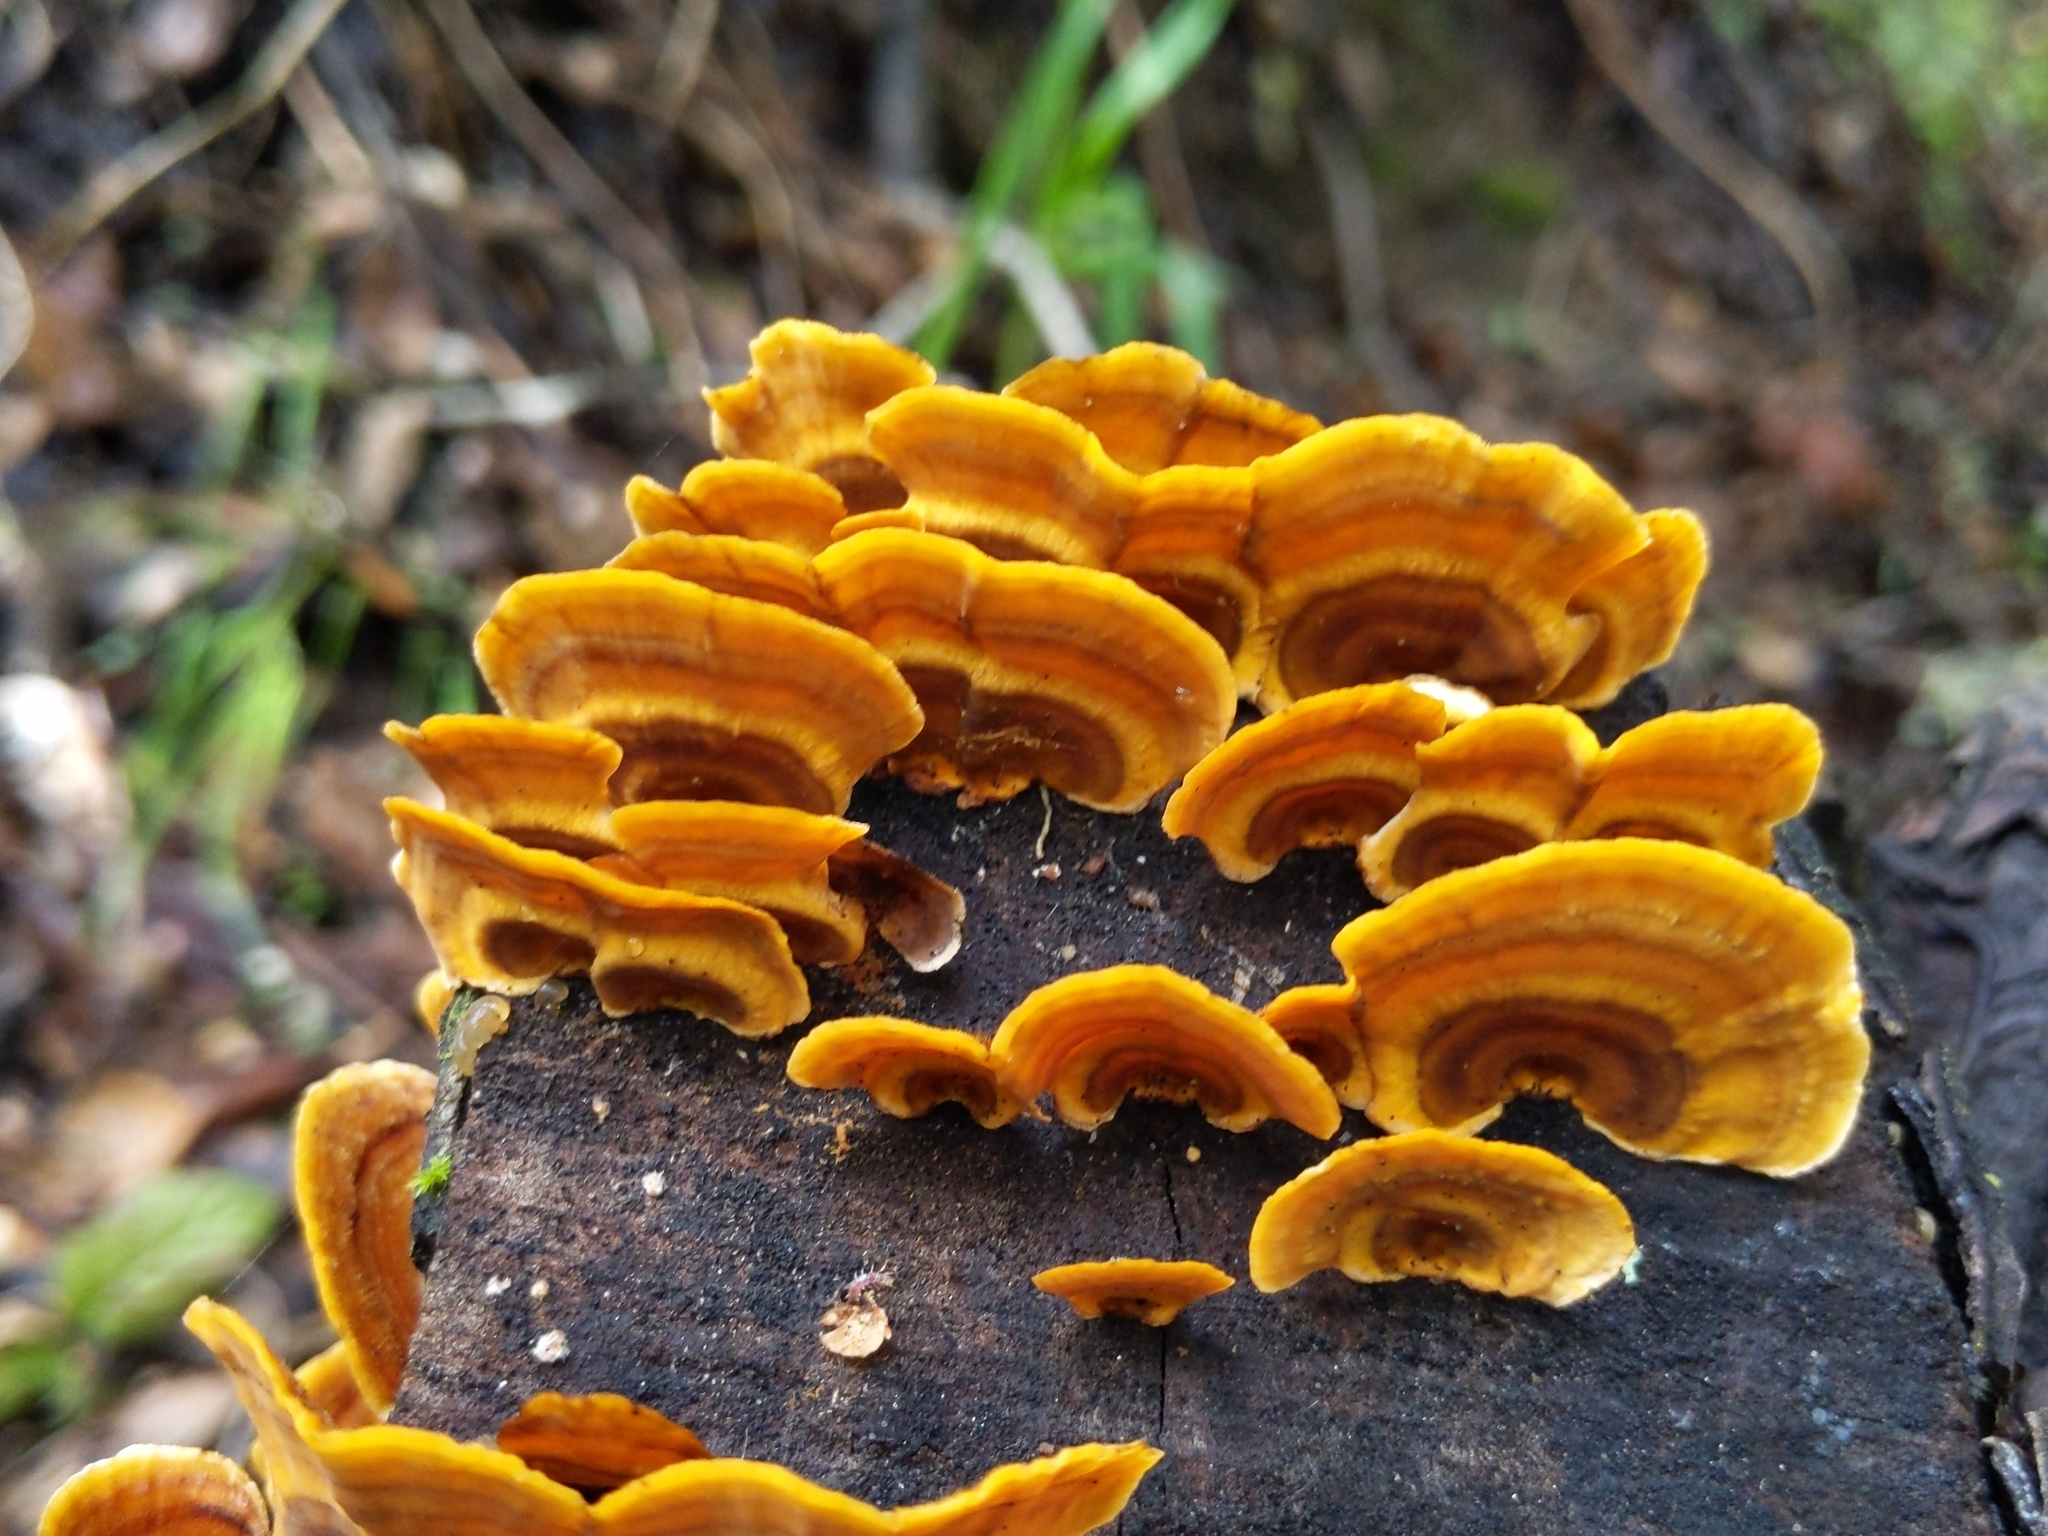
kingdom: Fungi
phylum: Basidiomycota
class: Agaricomycetes
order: Russulales
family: Stereaceae
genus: Stereum
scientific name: Stereum hirsutum
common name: Hairy curtain crust
